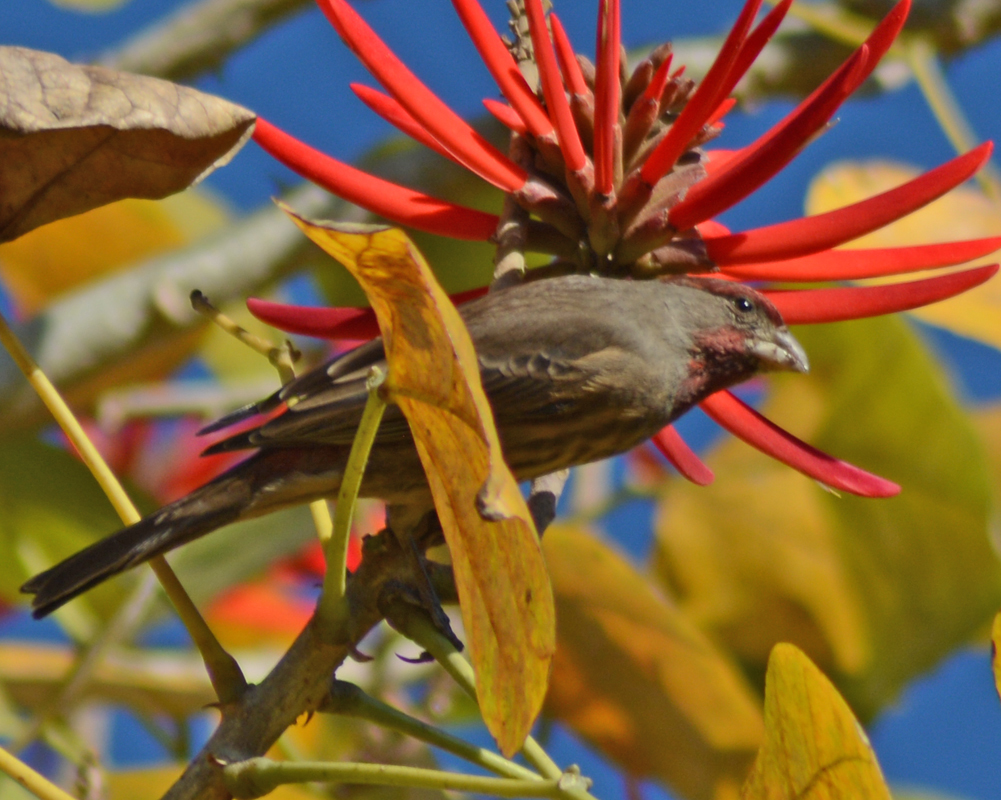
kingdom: Animalia
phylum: Chordata
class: Aves
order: Passeriformes
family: Fringillidae
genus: Haemorhous
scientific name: Haemorhous mexicanus
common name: House finch
